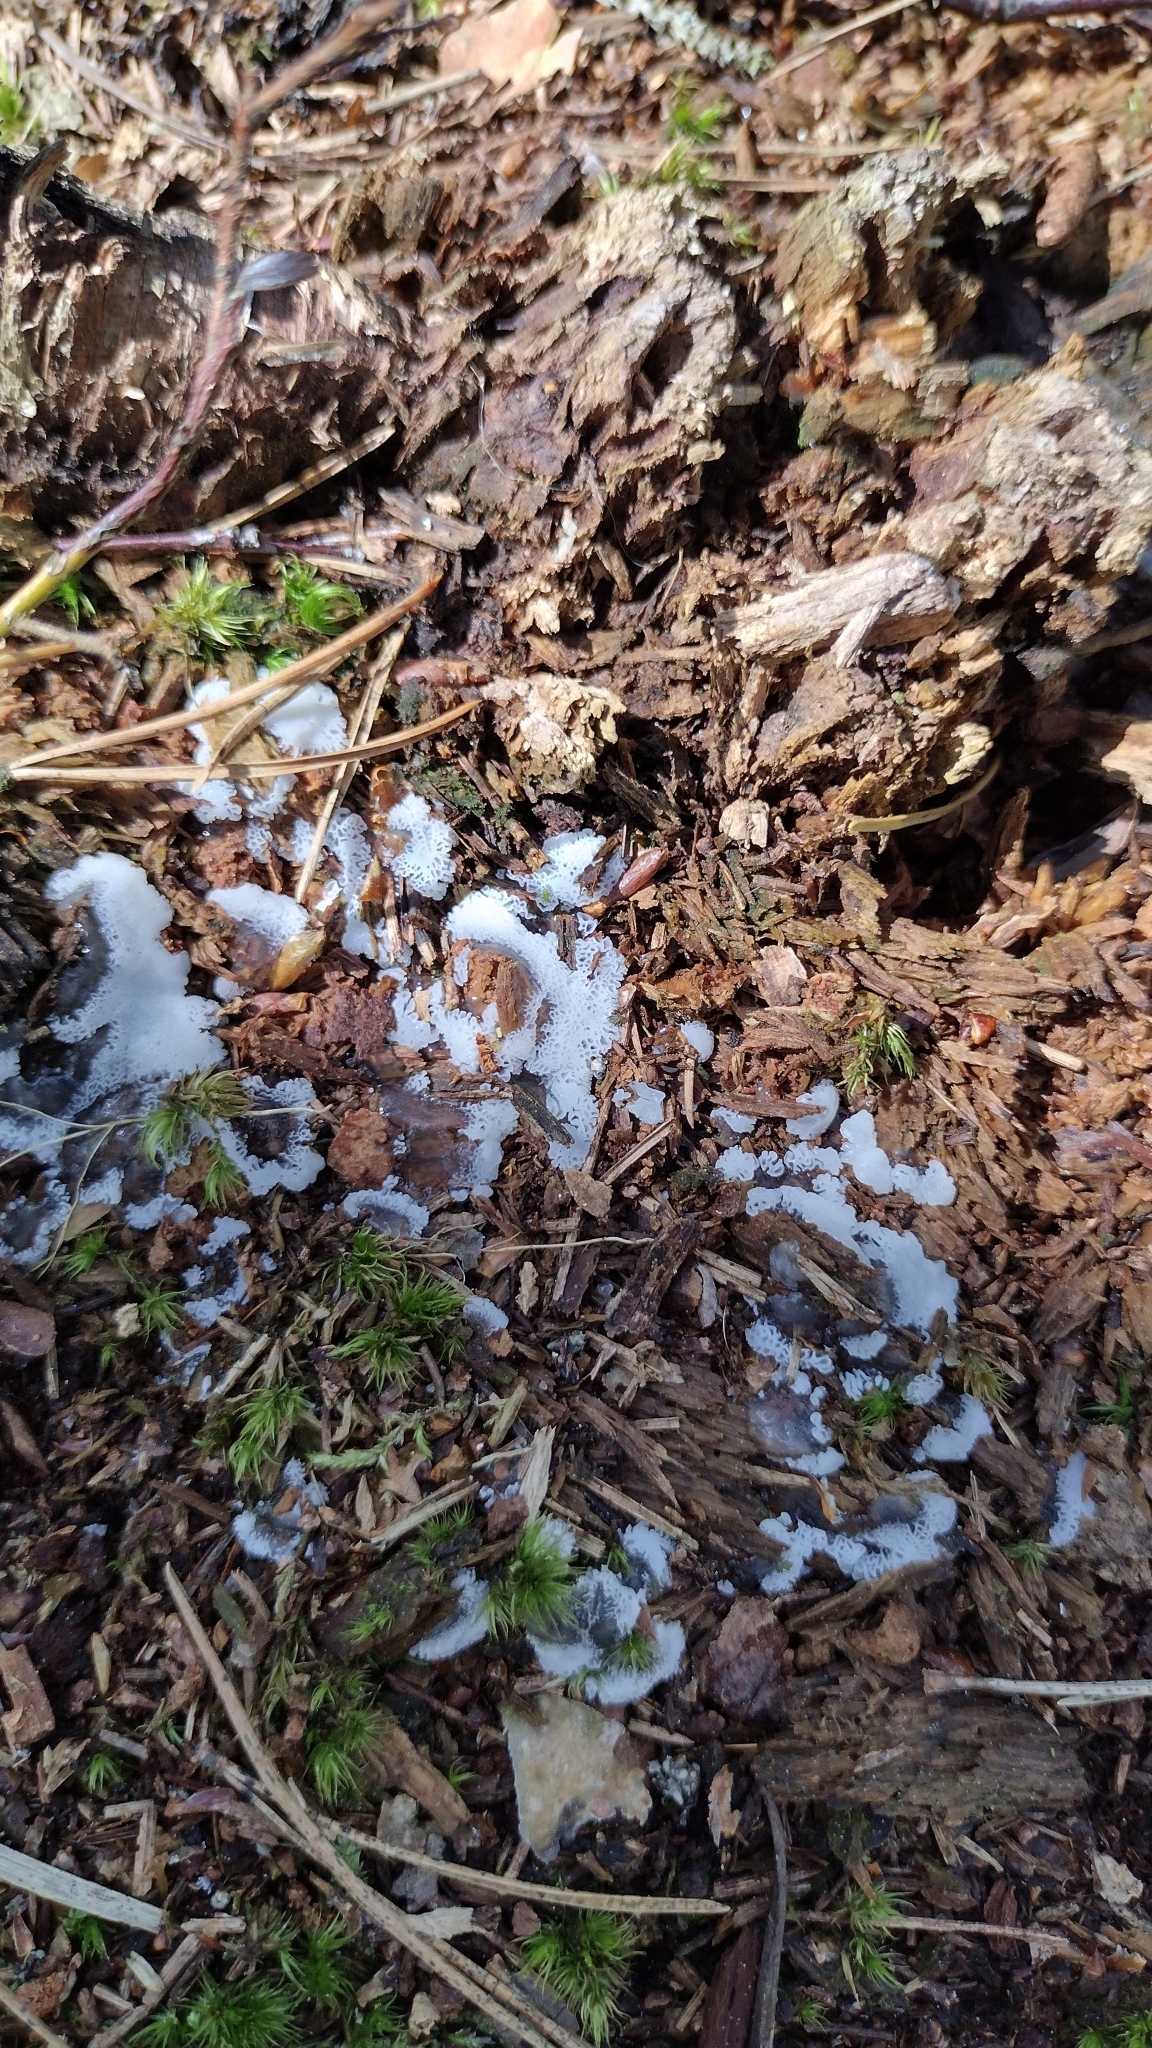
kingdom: Protozoa
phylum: Mycetozoa
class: Protosteliomycetes
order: Ceratiomyxales
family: Ceratiomyxaceae
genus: Ceratiomyxa
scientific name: Ceratiomyxa fruticulosa
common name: Honeycomb coral slime mold
